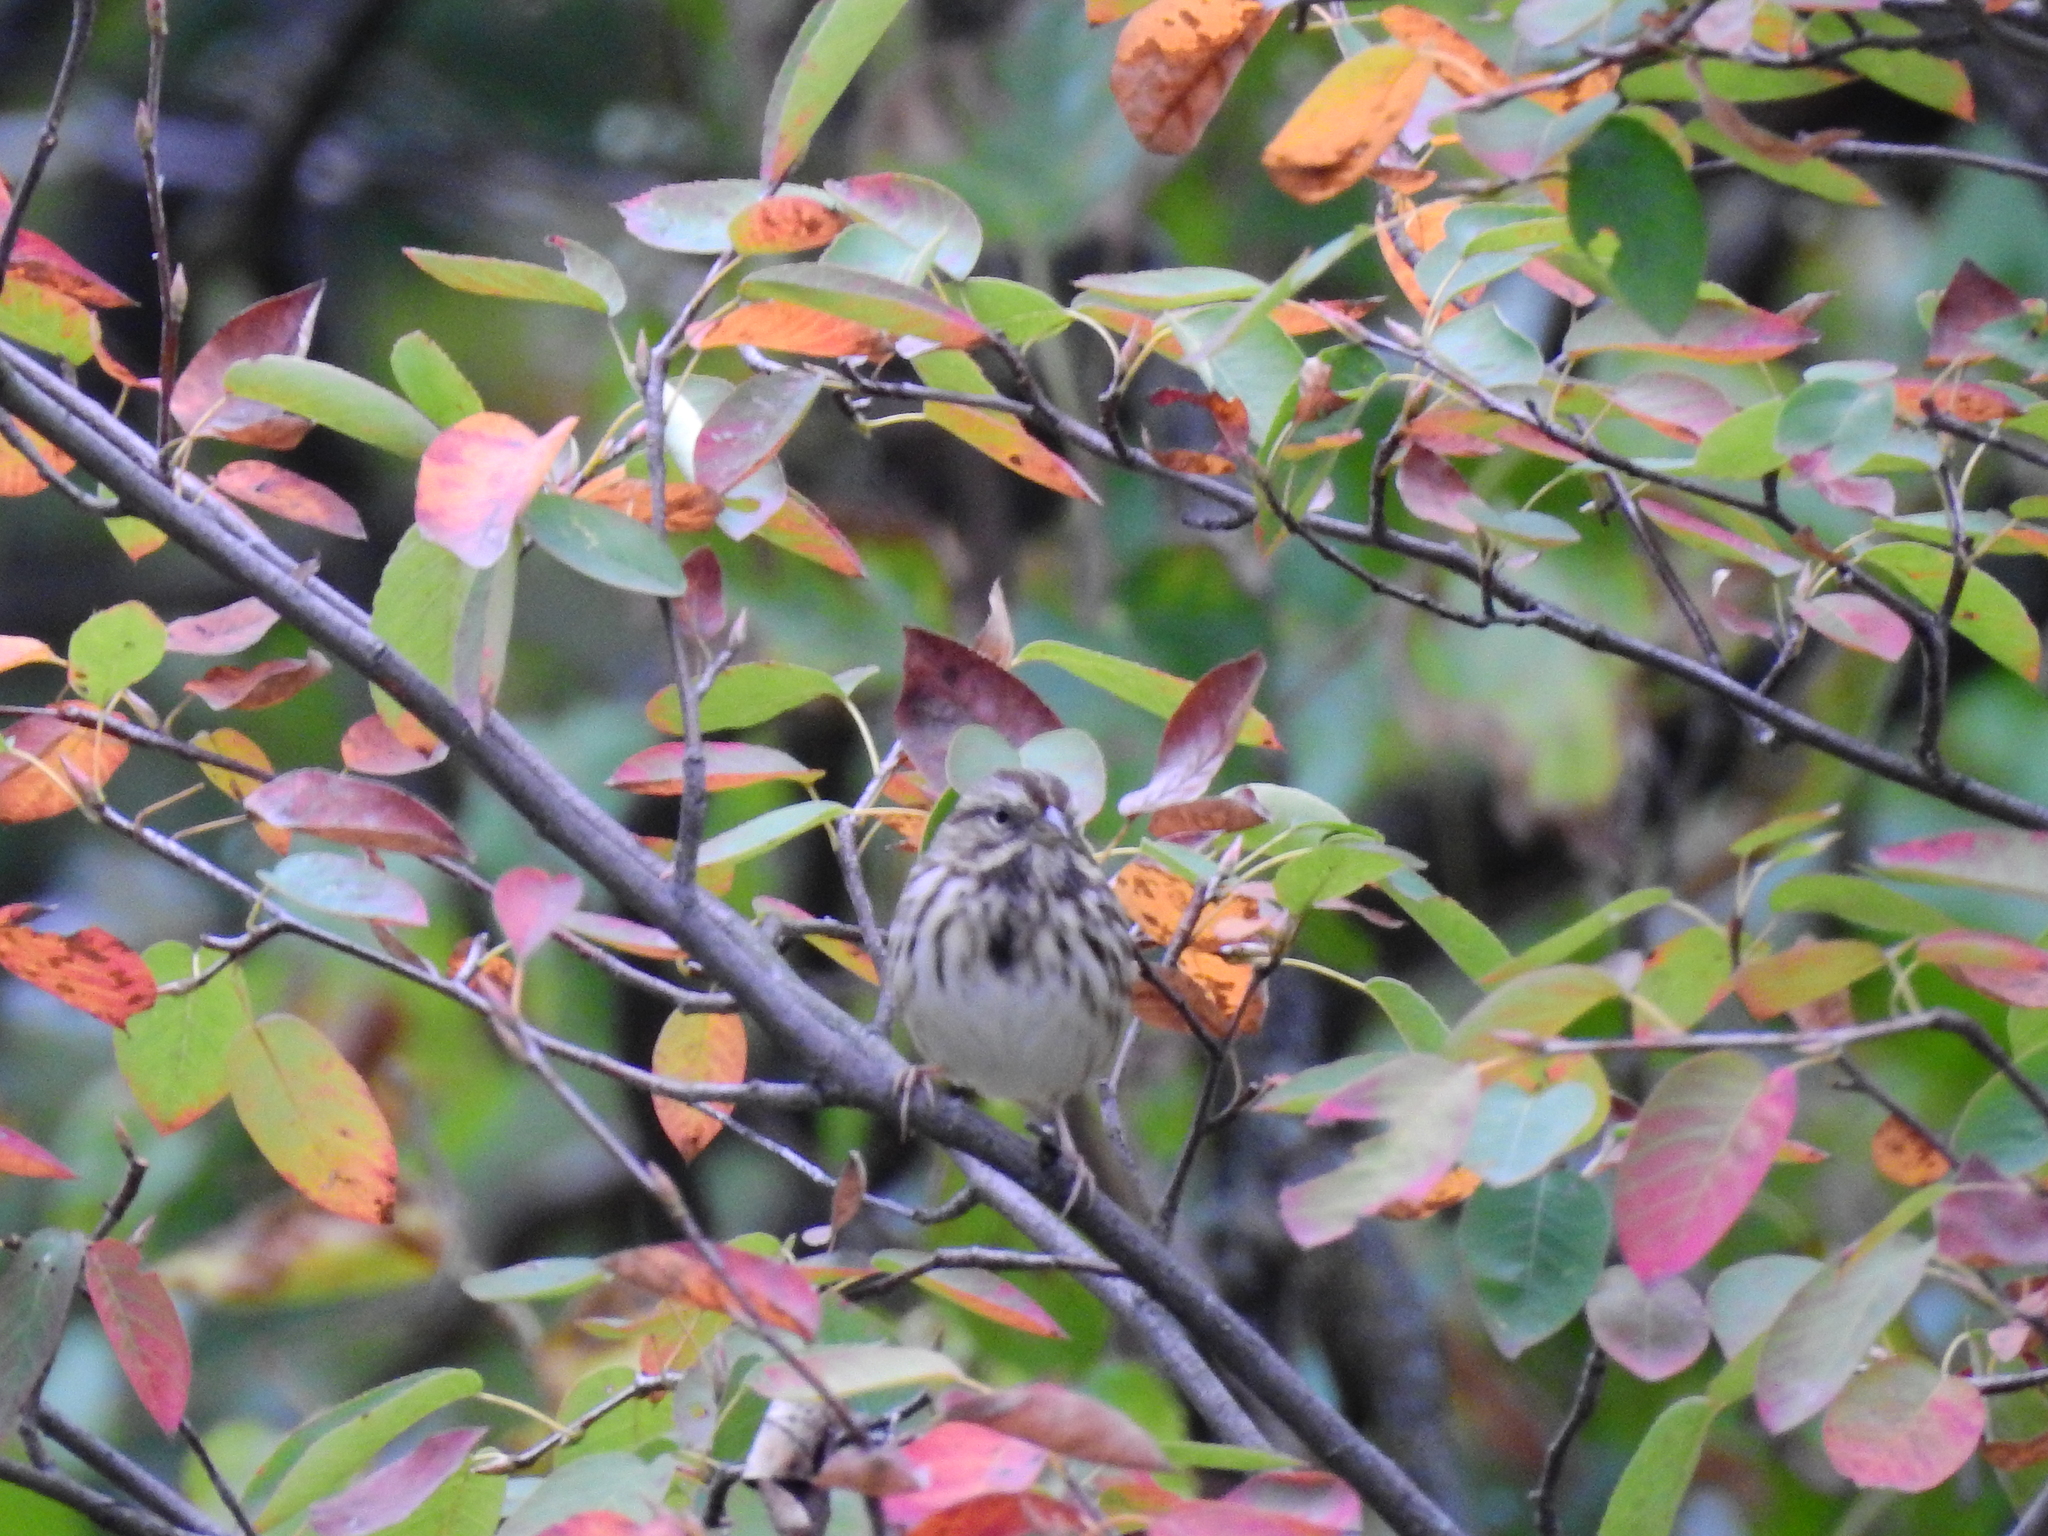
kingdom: Animalia
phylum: Chordata
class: Aves
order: Passeriformes
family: Passerellidae
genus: Melospiza
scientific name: Melospiza melodia
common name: Song sparrow
